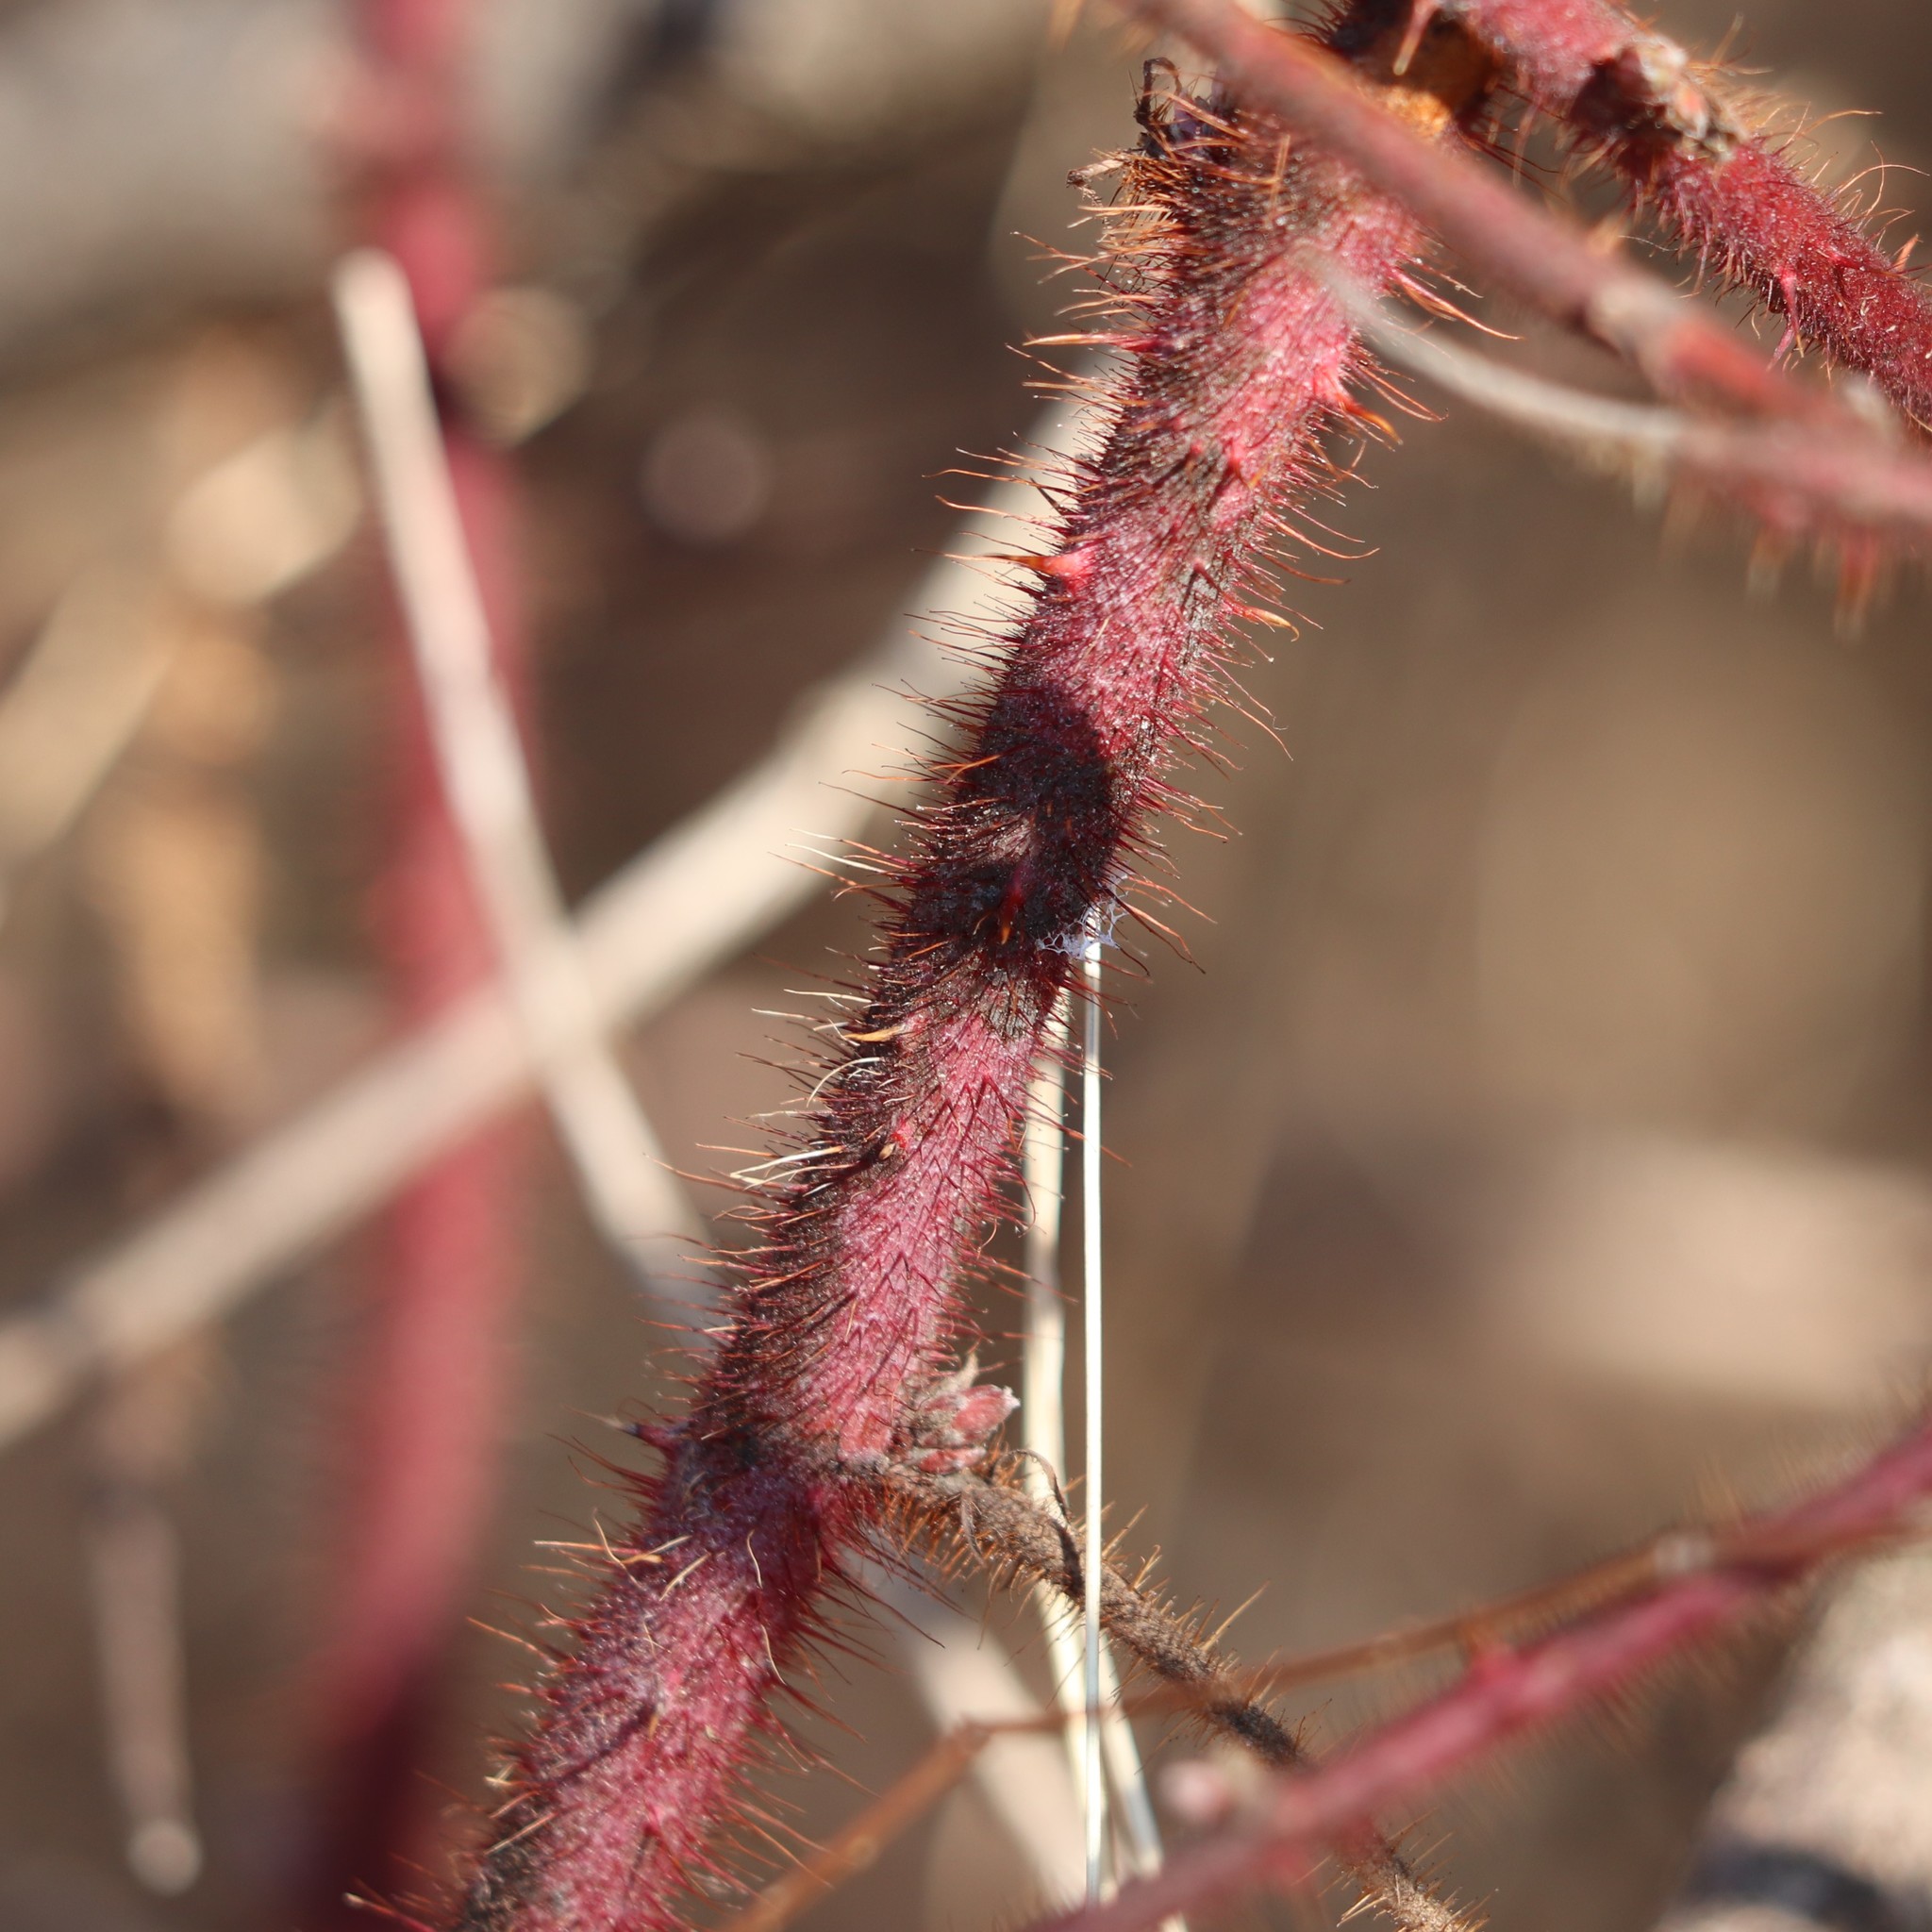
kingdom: Plantae
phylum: Tracheophyta
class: Magnoliopsida
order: Rosales
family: Rosaceae
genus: Rubus
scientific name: Rubus phoenicolasius
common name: Japanese wineberry
